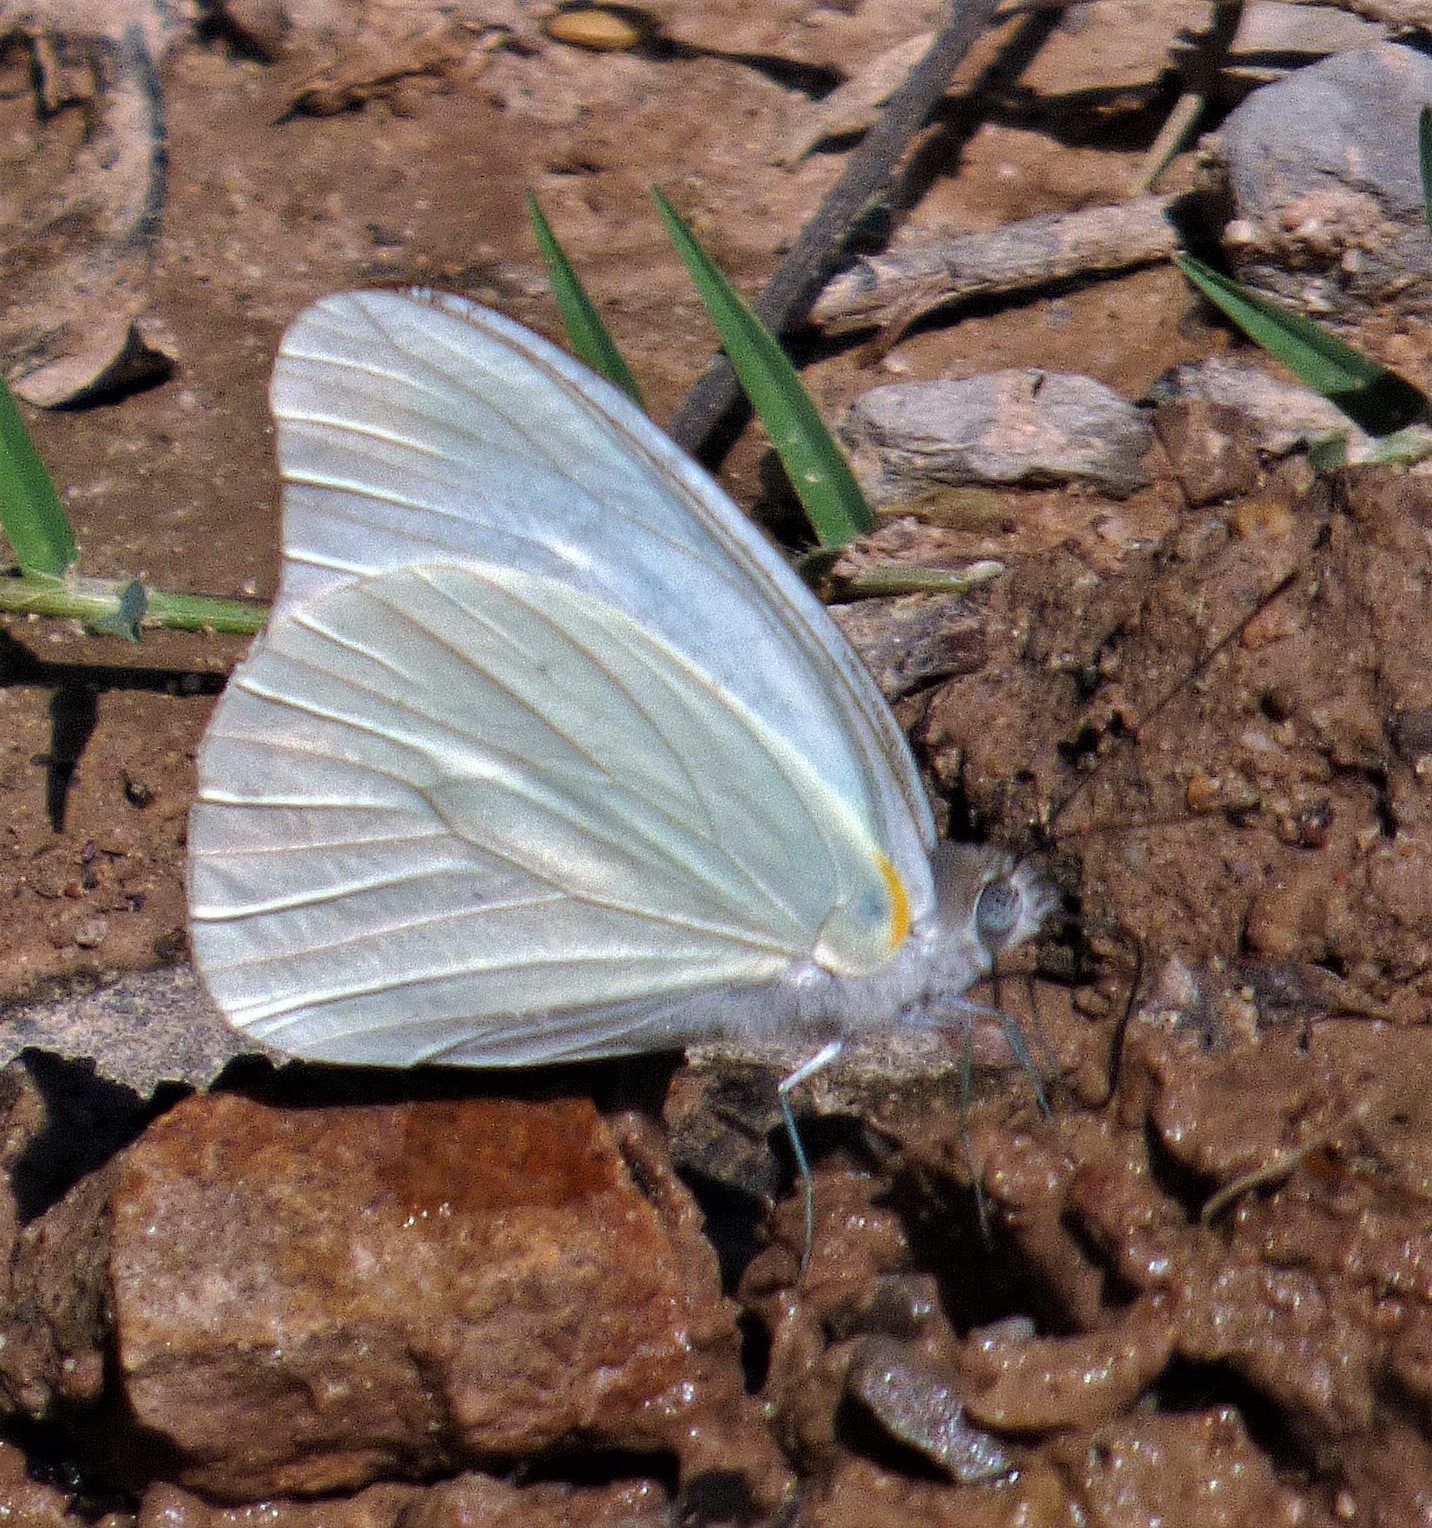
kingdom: Animalia
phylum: Arthropoda
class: Insecta
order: Lepidoptera
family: Pieridae
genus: Glutophrissa
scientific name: Glutophrissa drusilla
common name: Florida white
